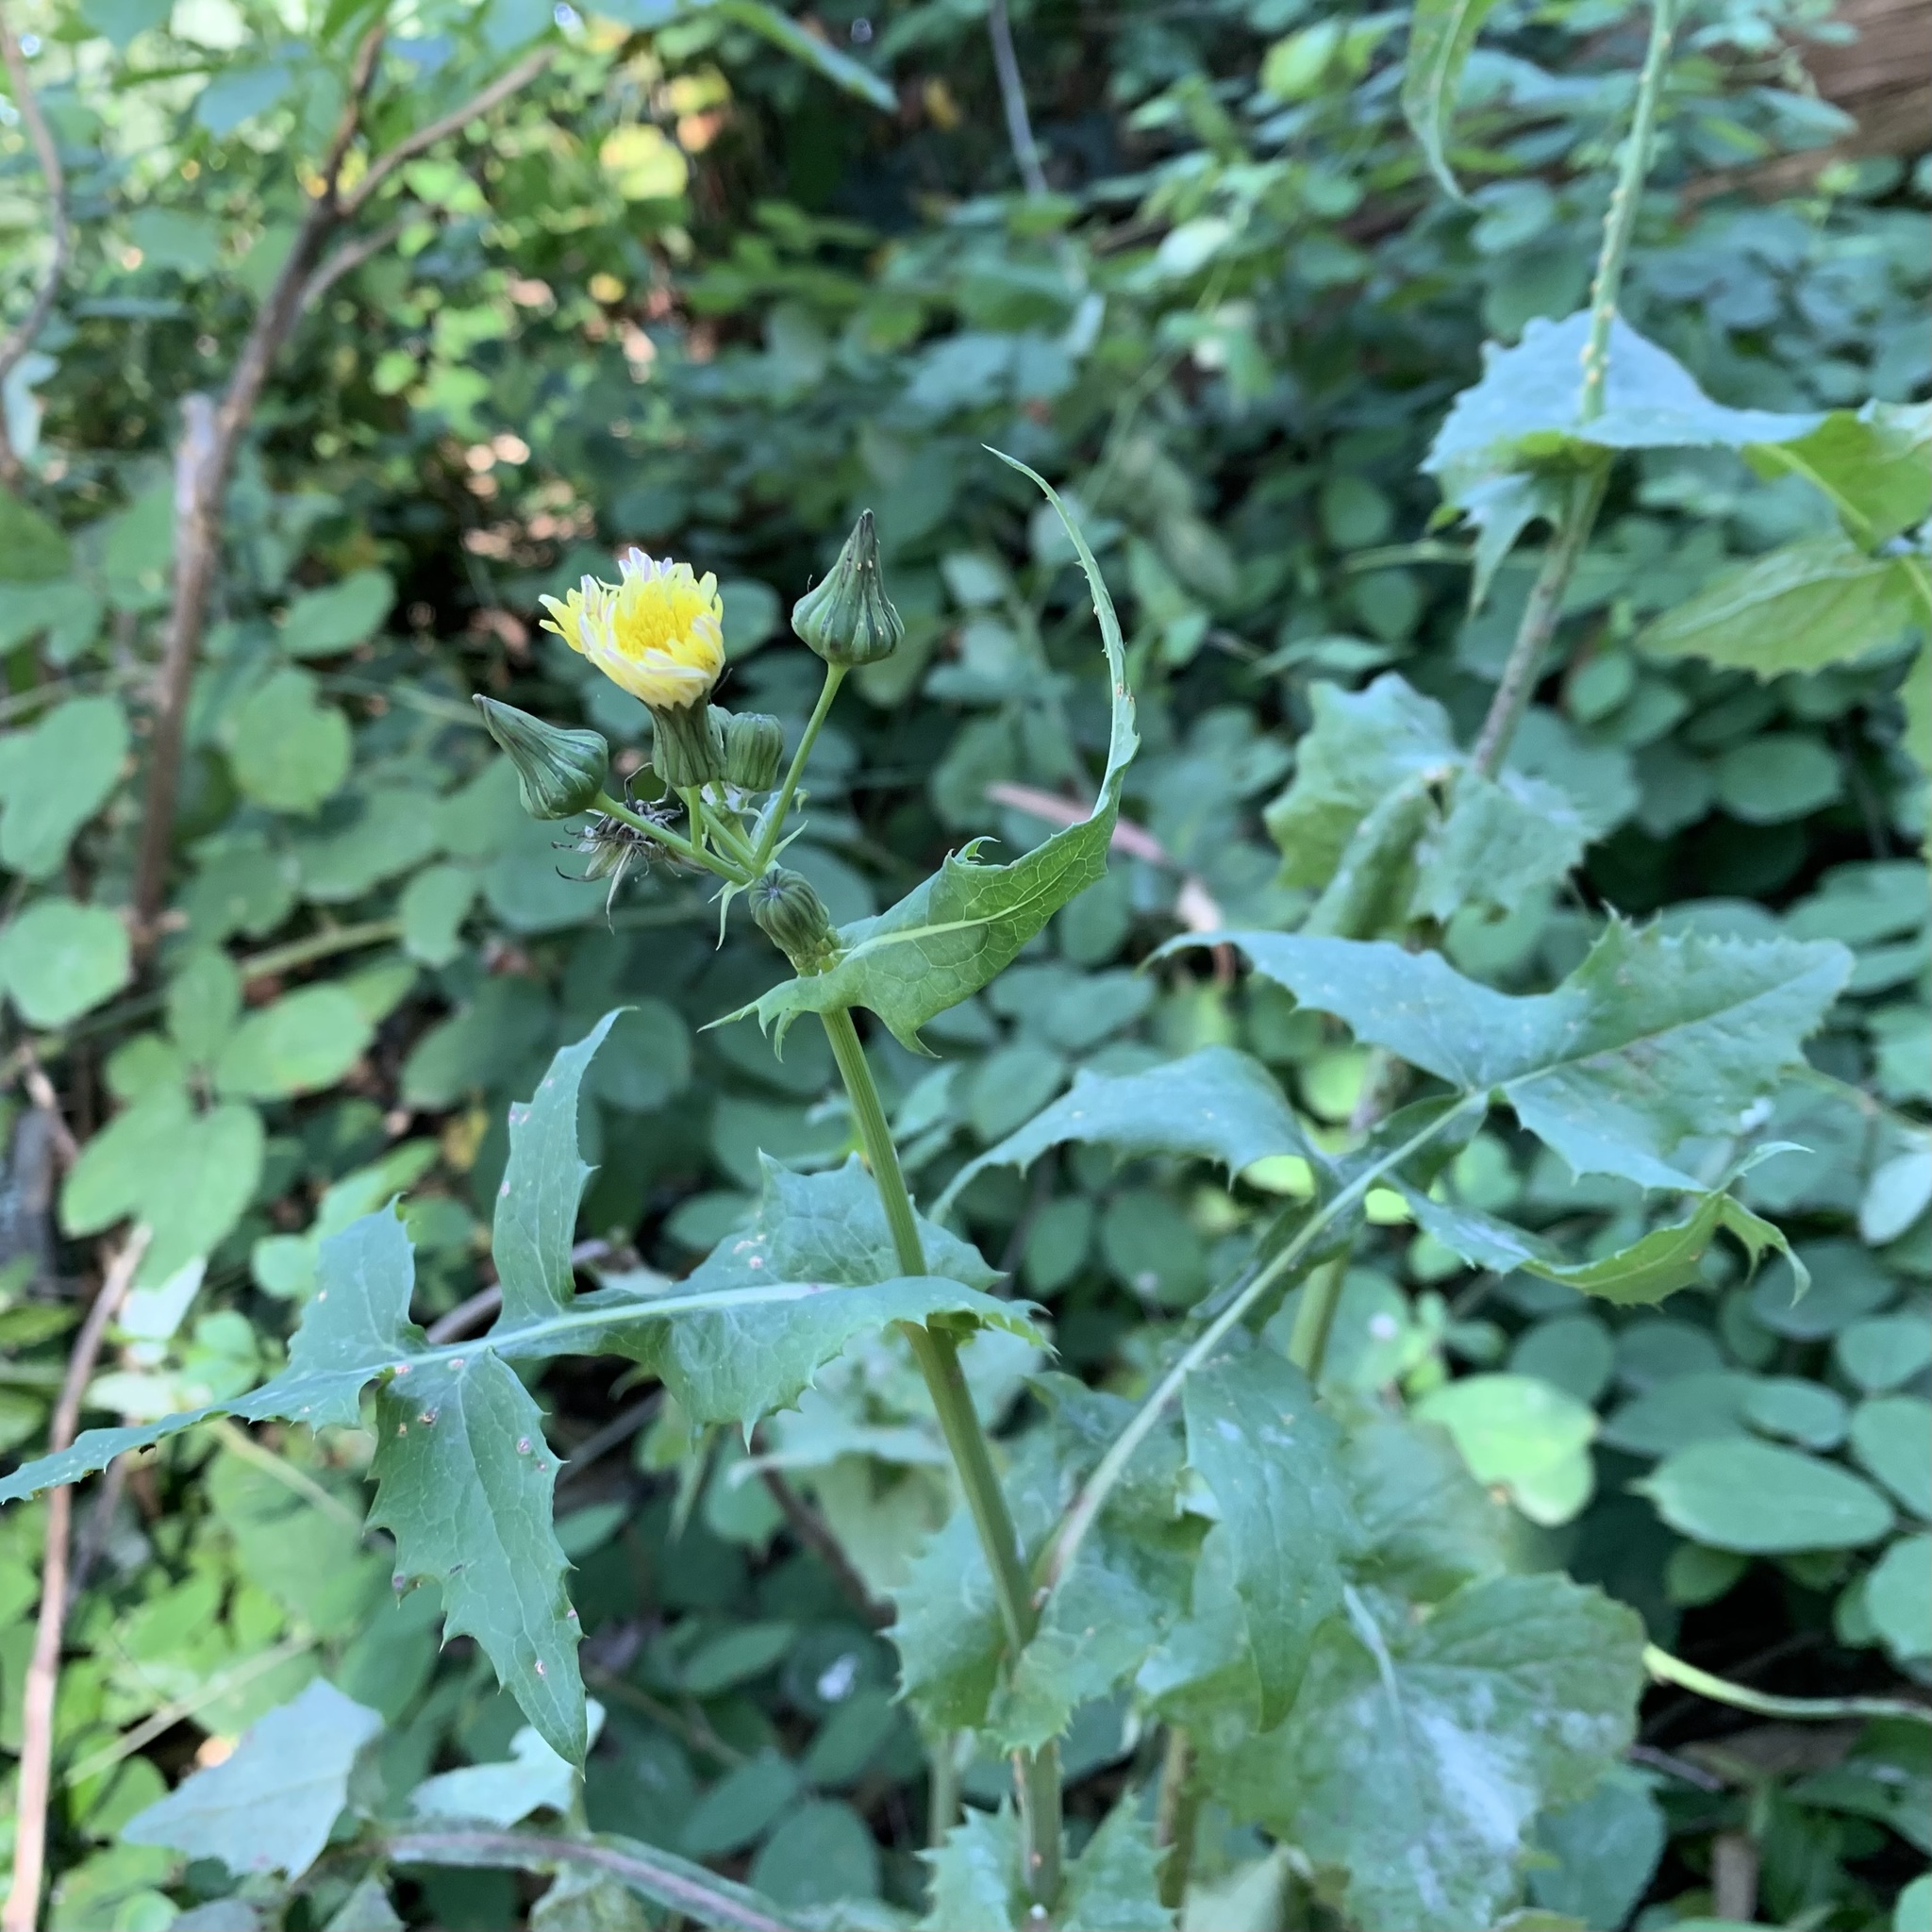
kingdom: Plantae
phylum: Tracheophyta
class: Magnoliopsida
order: Asterales
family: Asteraceae
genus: Sonchus
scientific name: Sonchus oleraceus
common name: Common sowthistle
